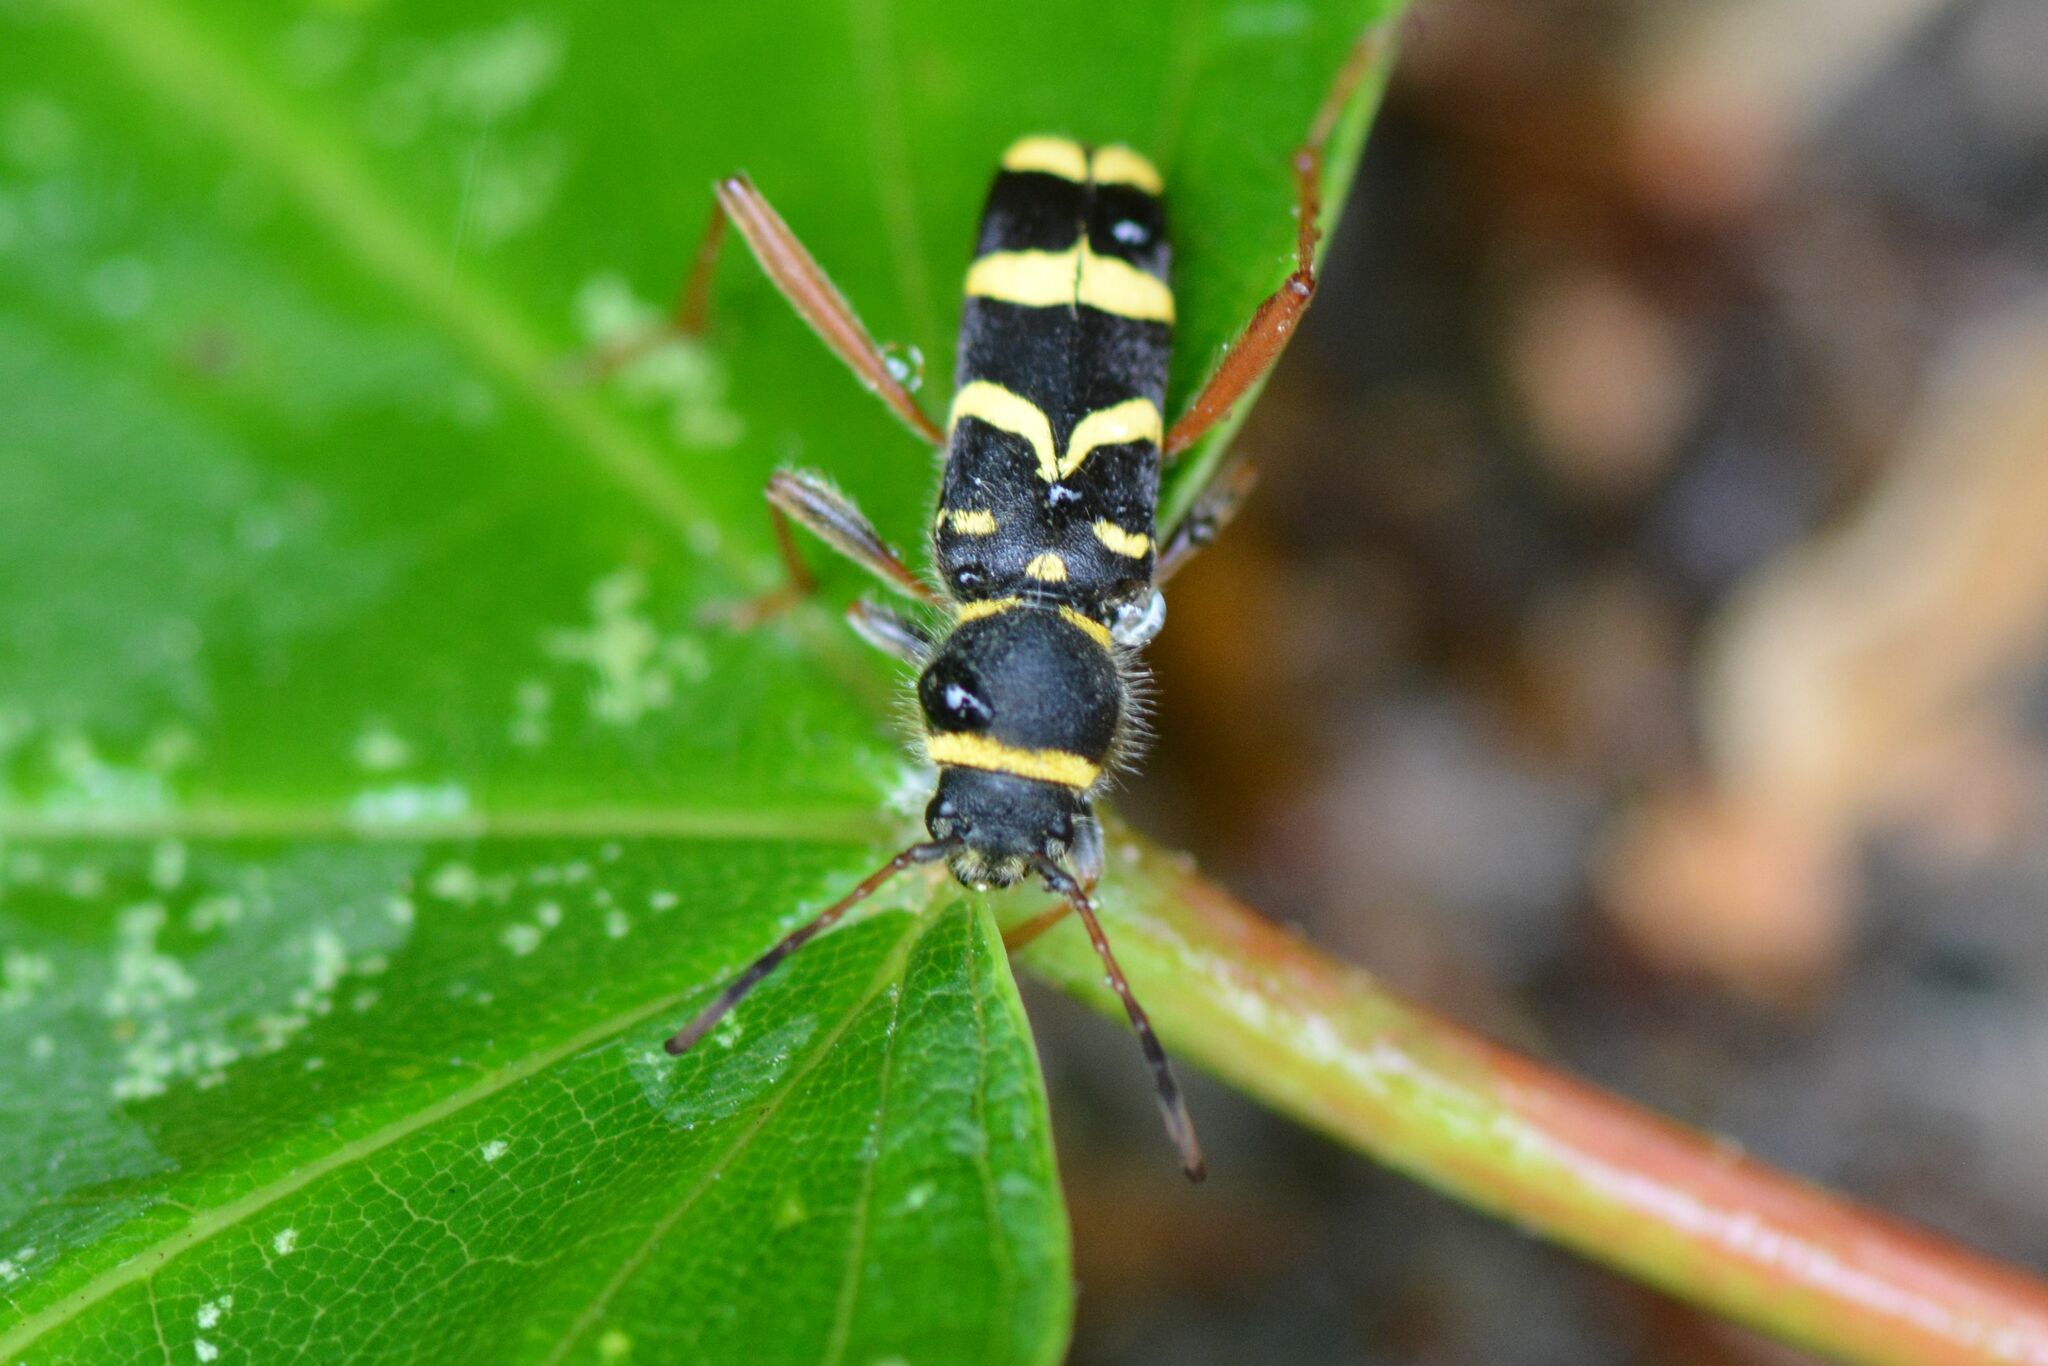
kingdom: Animalia
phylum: Arthropoda
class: Insecta
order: Coleoptera
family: Cerambycidae
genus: Clytus
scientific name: Clytus arietis
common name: Wasp beetle
